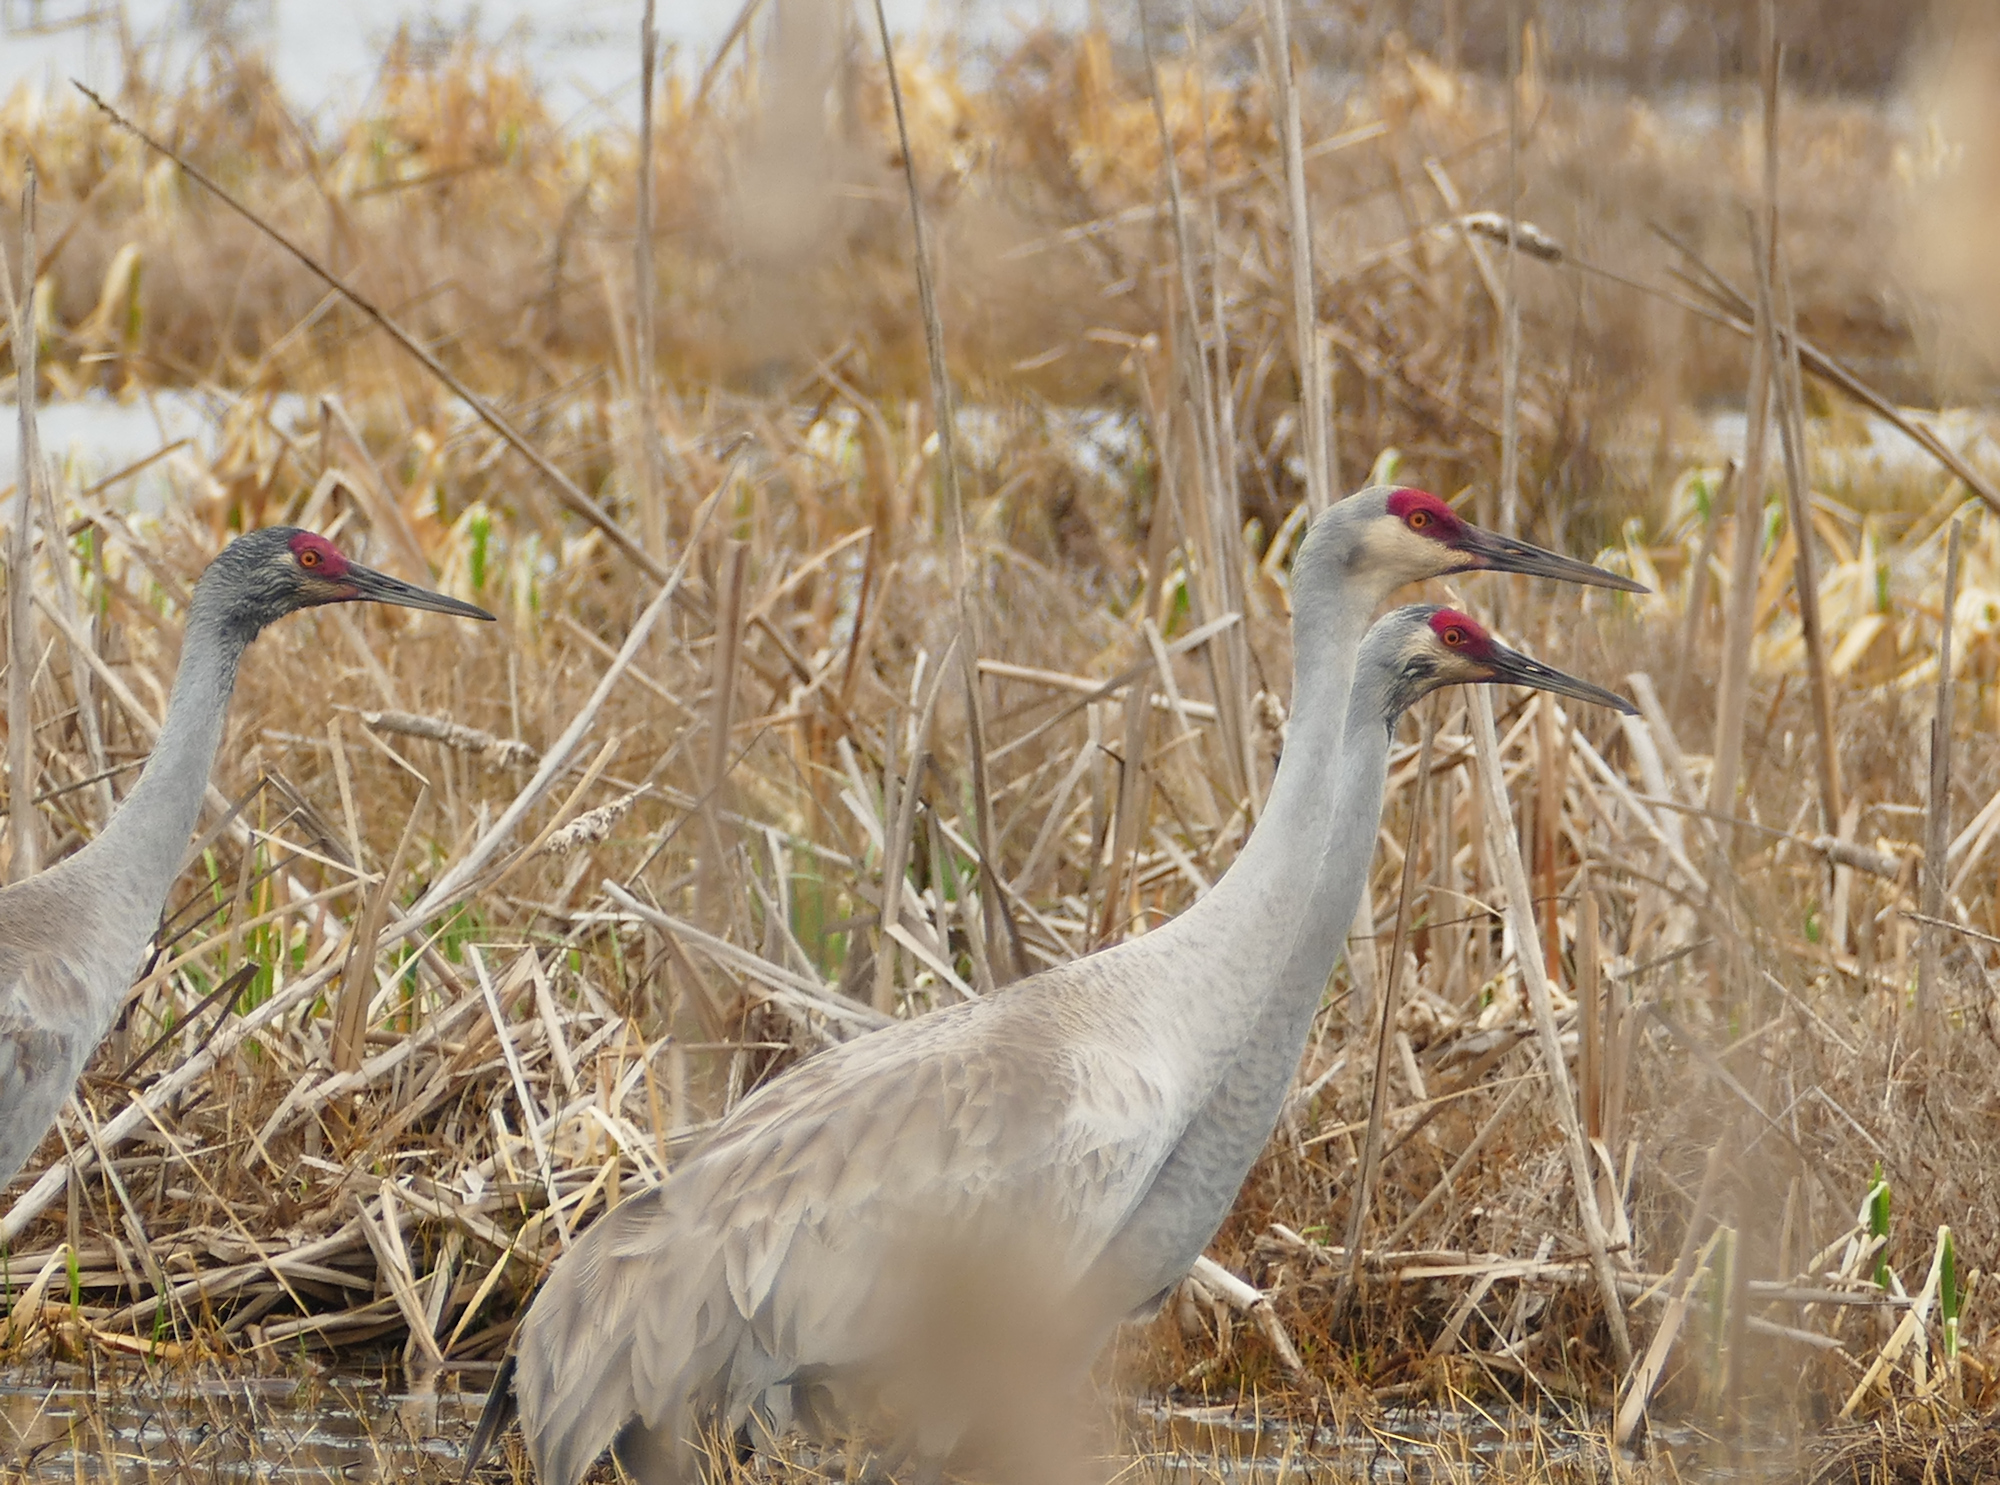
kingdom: Animalia
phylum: Chordata
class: Aves
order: Gruiformes
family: Gruidae
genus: Grus
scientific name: Grus canadensis
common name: Sandhill crane
